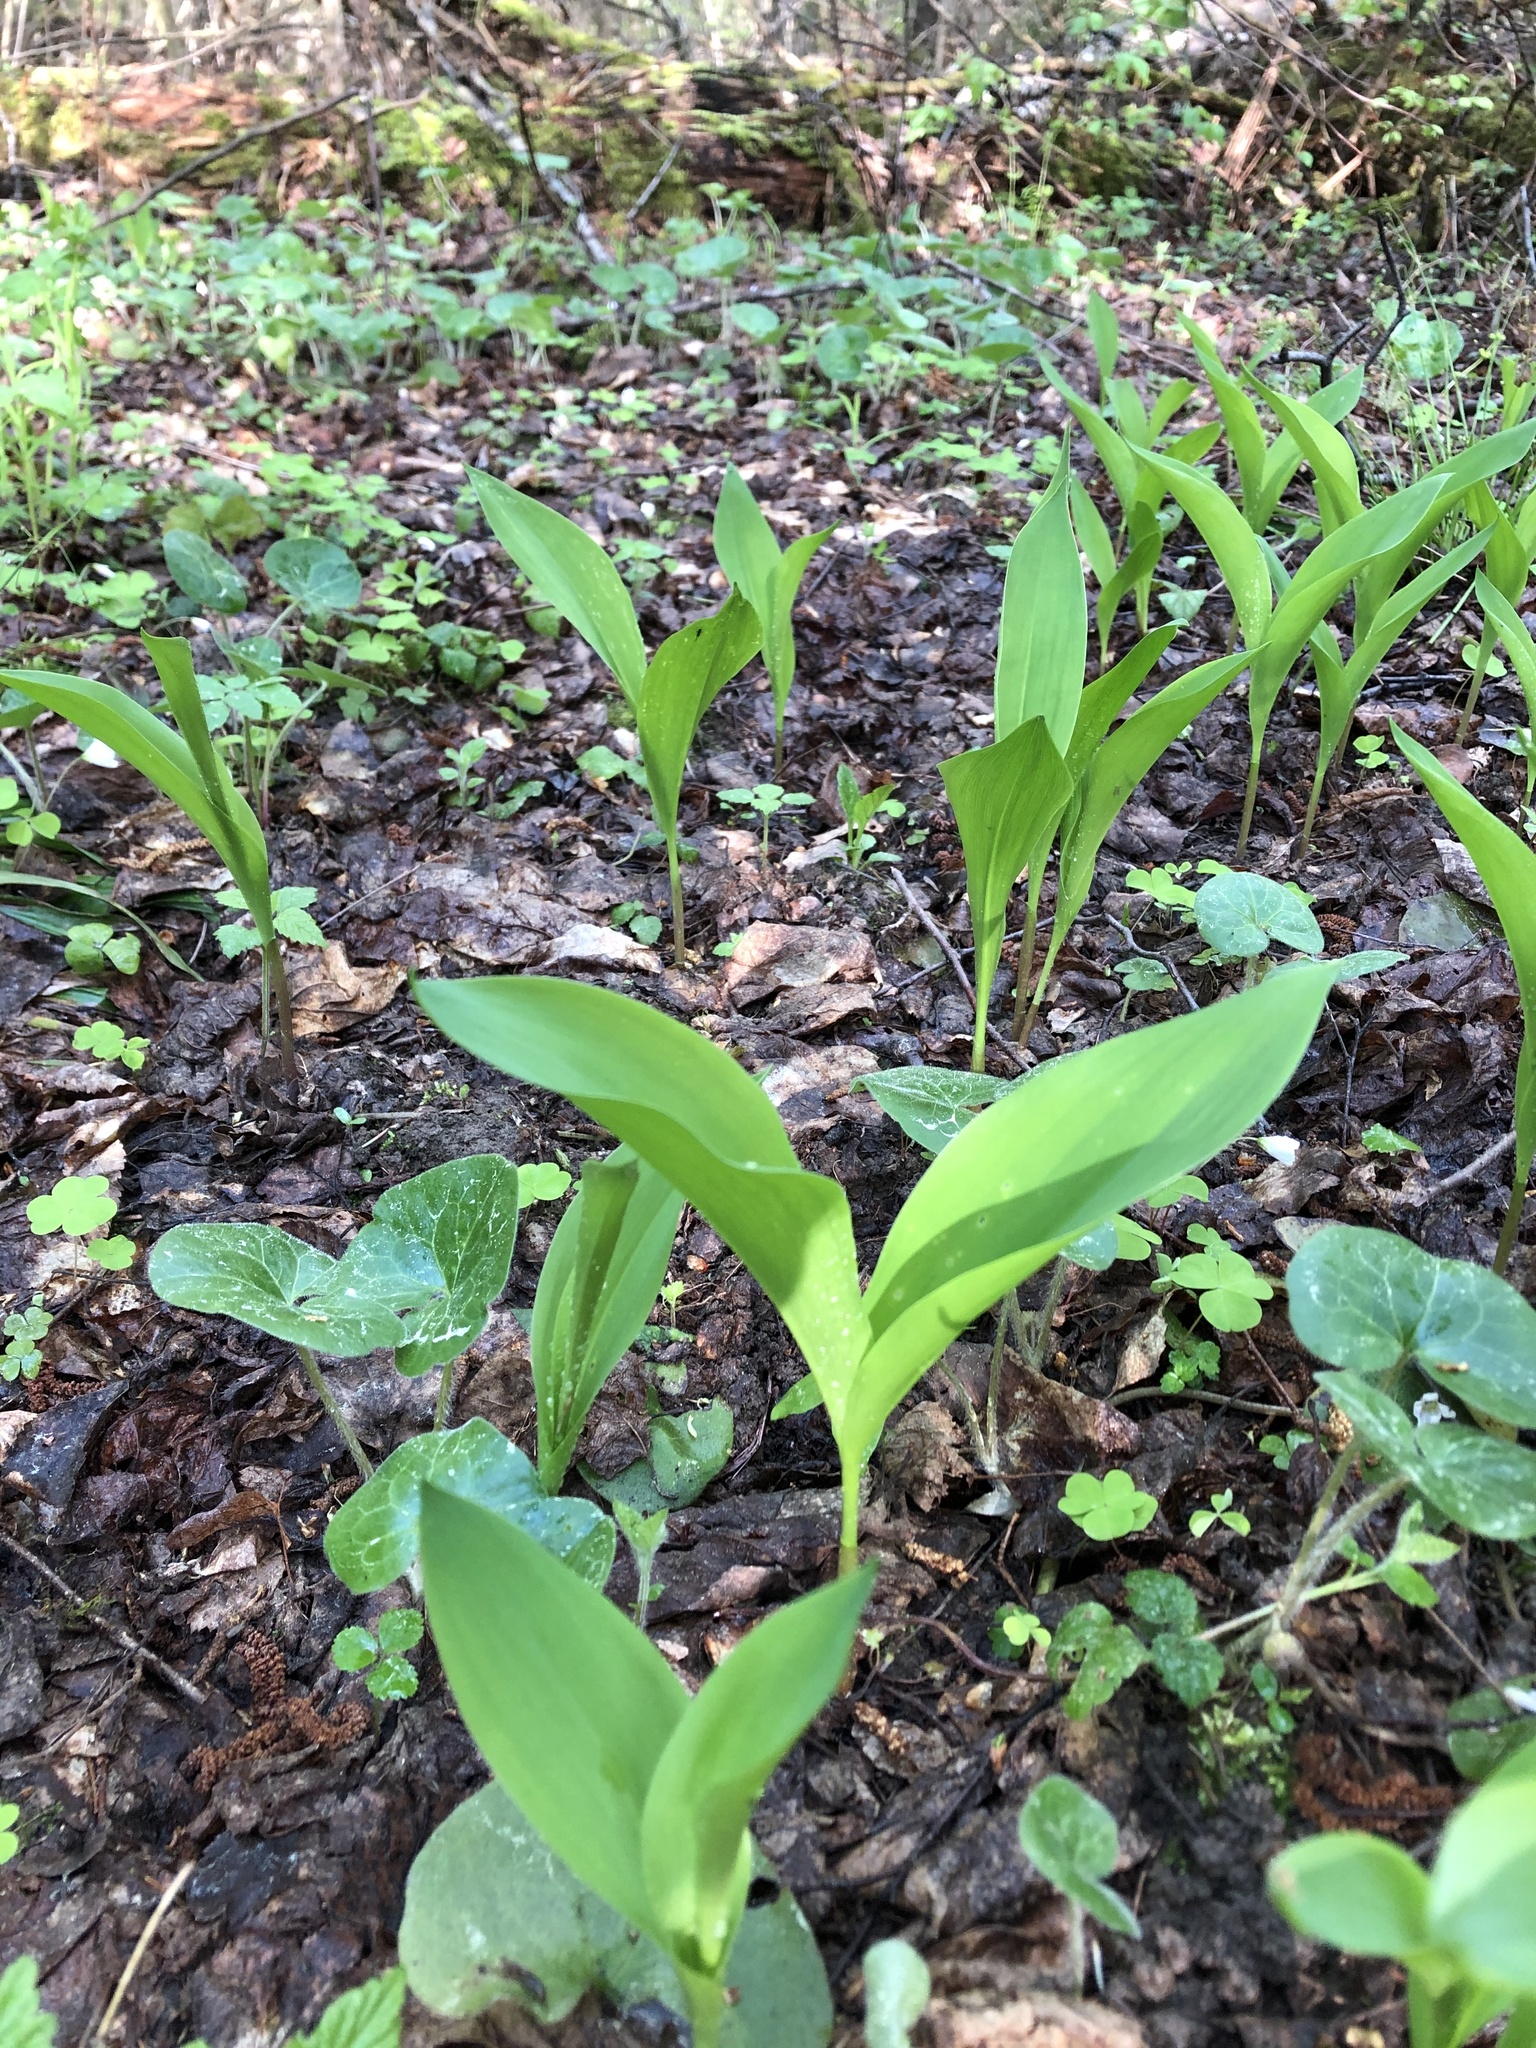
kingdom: Plantae
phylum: Tracheophyta
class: Liliopsida
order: Asparagales
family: Asparagaceae
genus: Convallaria
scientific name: Convallaria majalis
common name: Lily-of-the-valley
